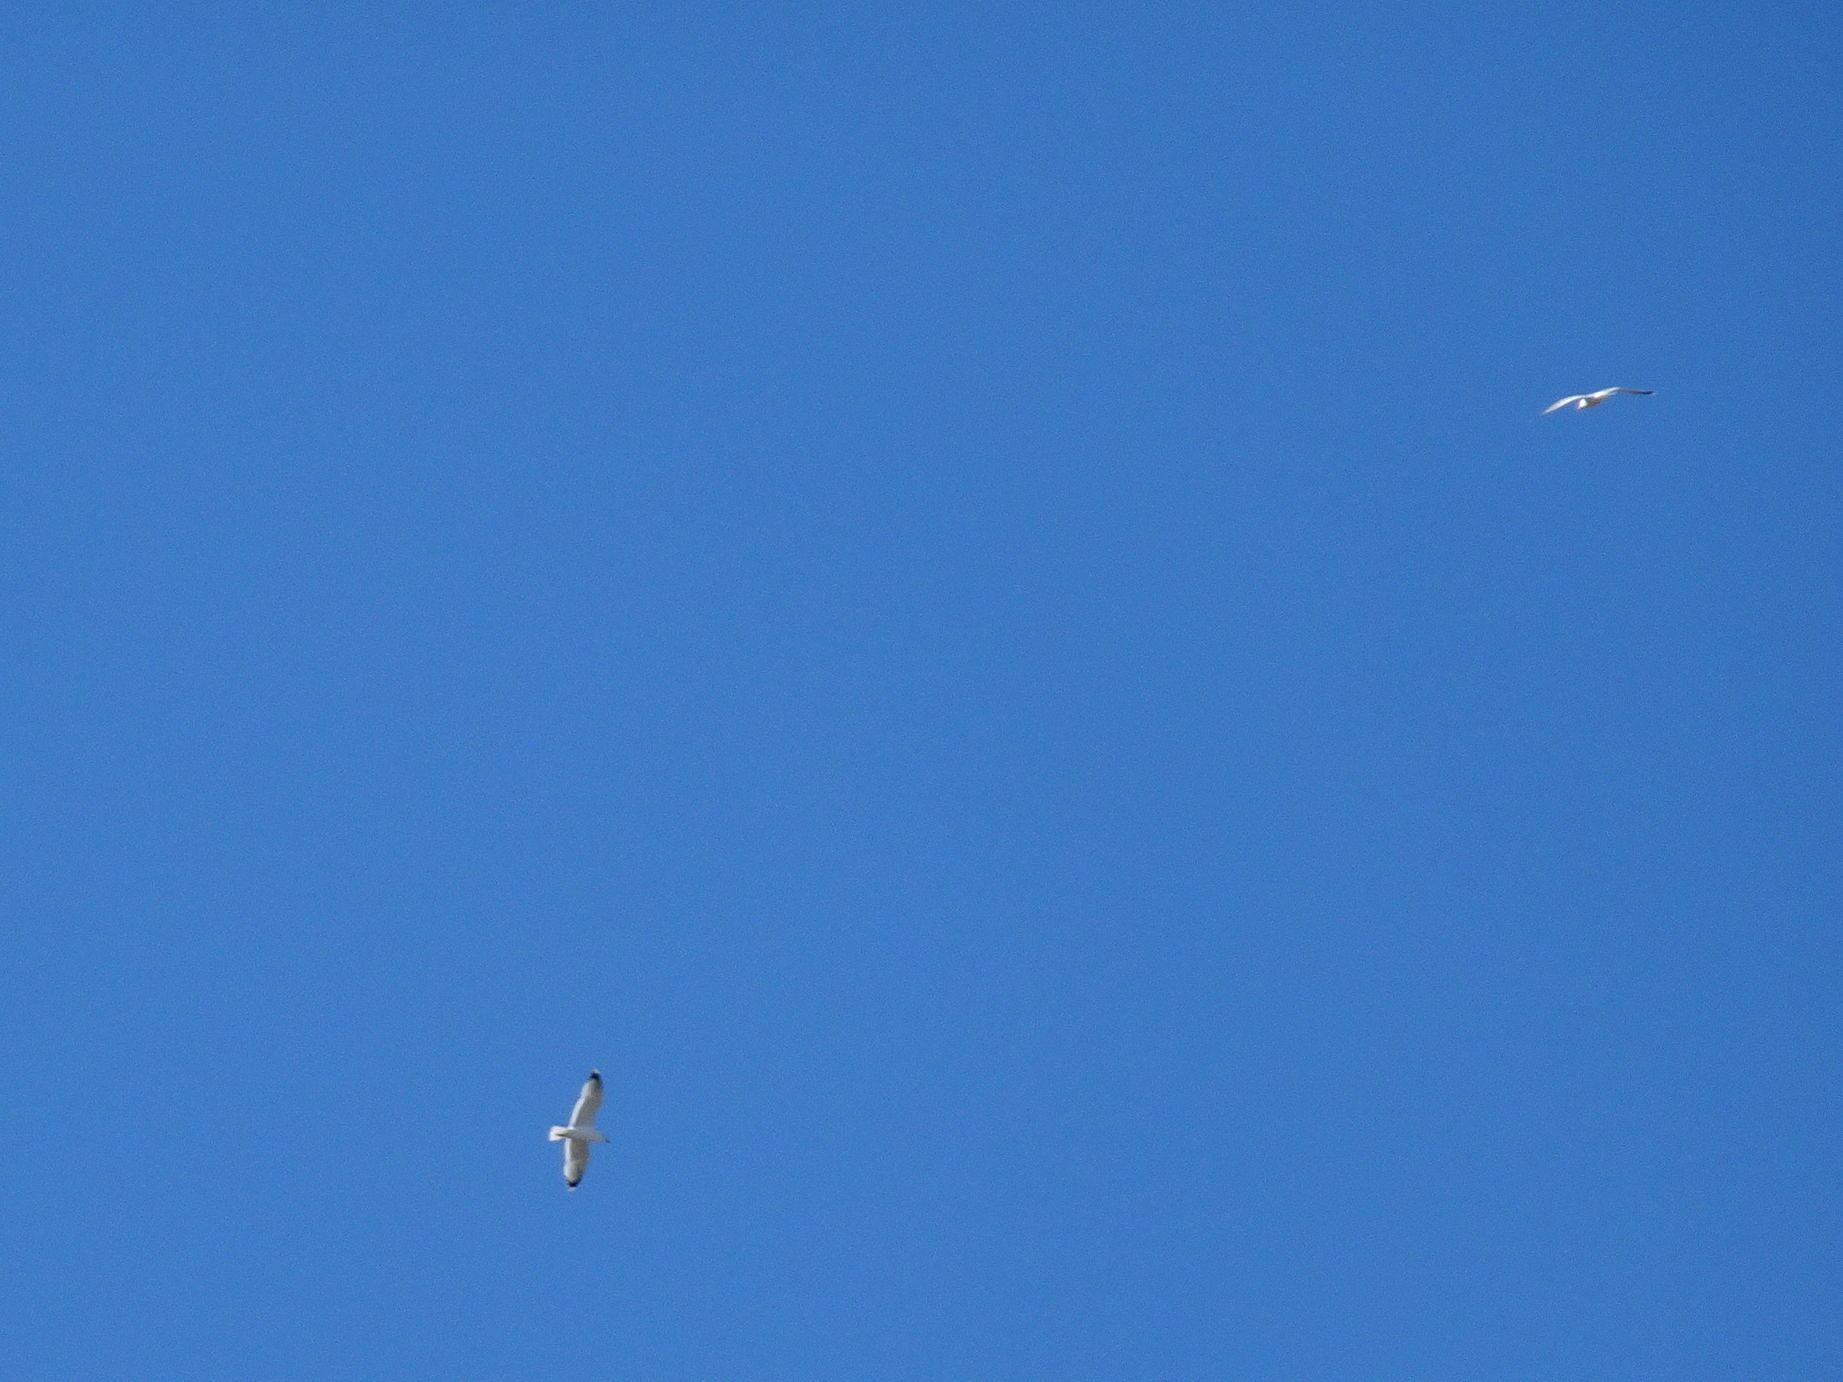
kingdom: Animalia
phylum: Chordata
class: Aves
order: Charadriiformes
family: Laridae
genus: Larus
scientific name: Larus michahellis
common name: Yellow-legged gull
